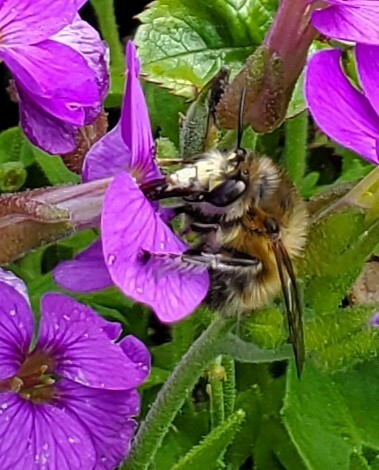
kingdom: Animalia
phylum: Arthropoda
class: Insecta
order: Hymenoptera
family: Apidae
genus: Anthophora
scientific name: Anthophora plumipes
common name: Hairy-footed flower bee
